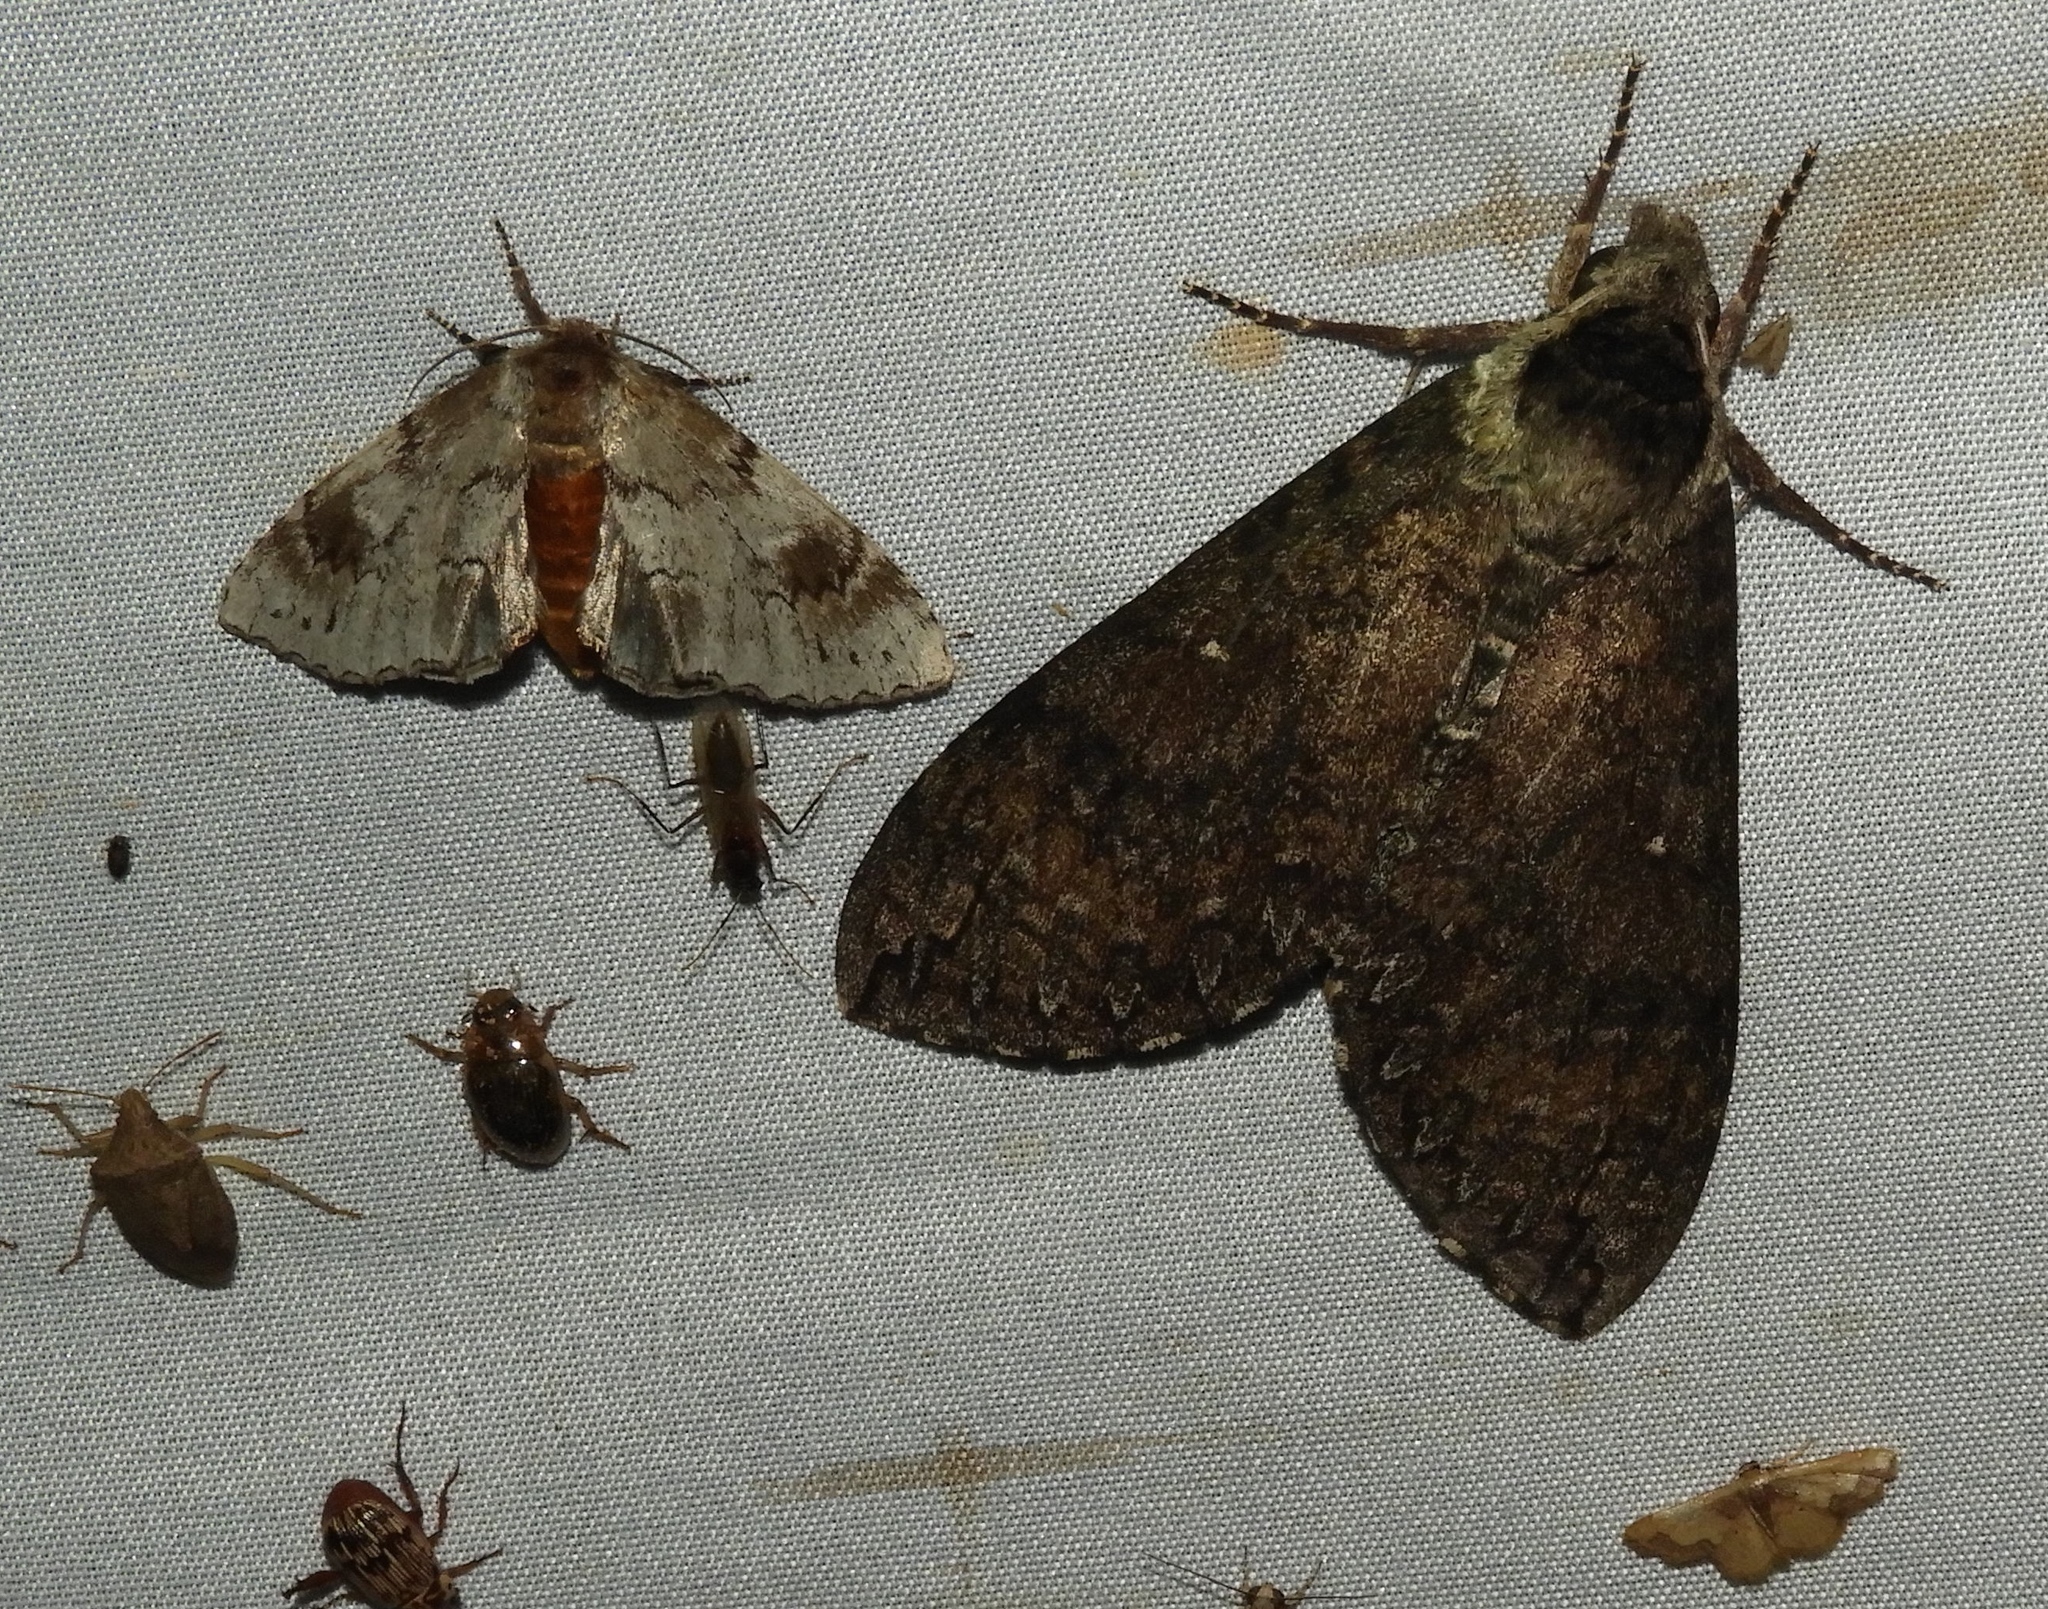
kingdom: Animalia
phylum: Arthropoda
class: Insecta
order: Lepidoptera
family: Sphingidae
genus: Manduca
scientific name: Manduca
